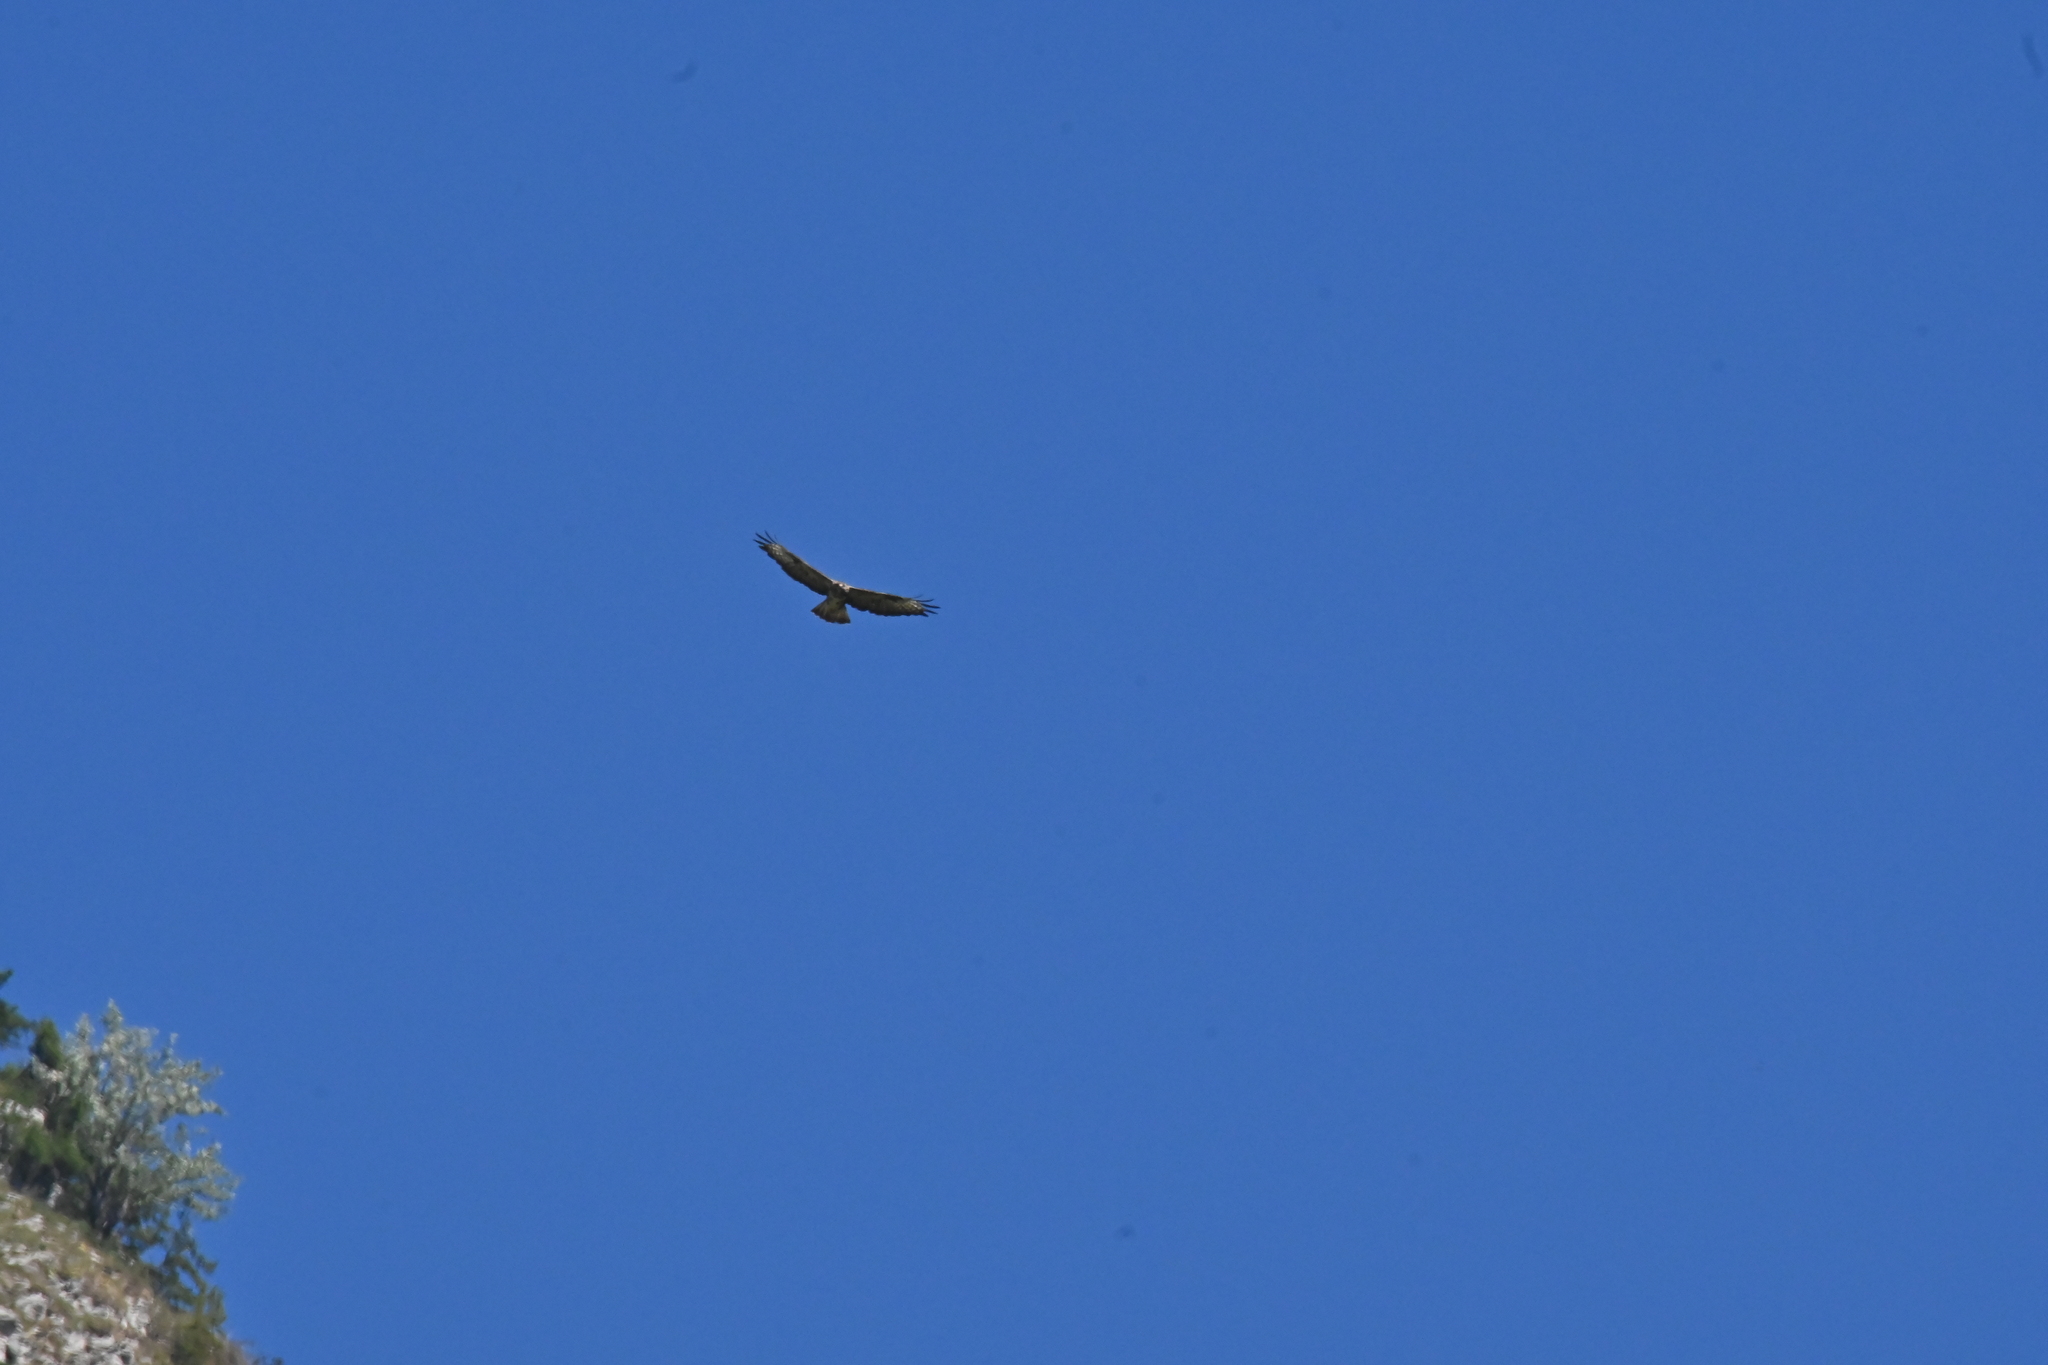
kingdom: Animalia
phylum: Chordata
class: Aves
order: Accipitriformes
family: Accipitridae
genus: Buteo
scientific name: Buteo buteo
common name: Common buzzard
